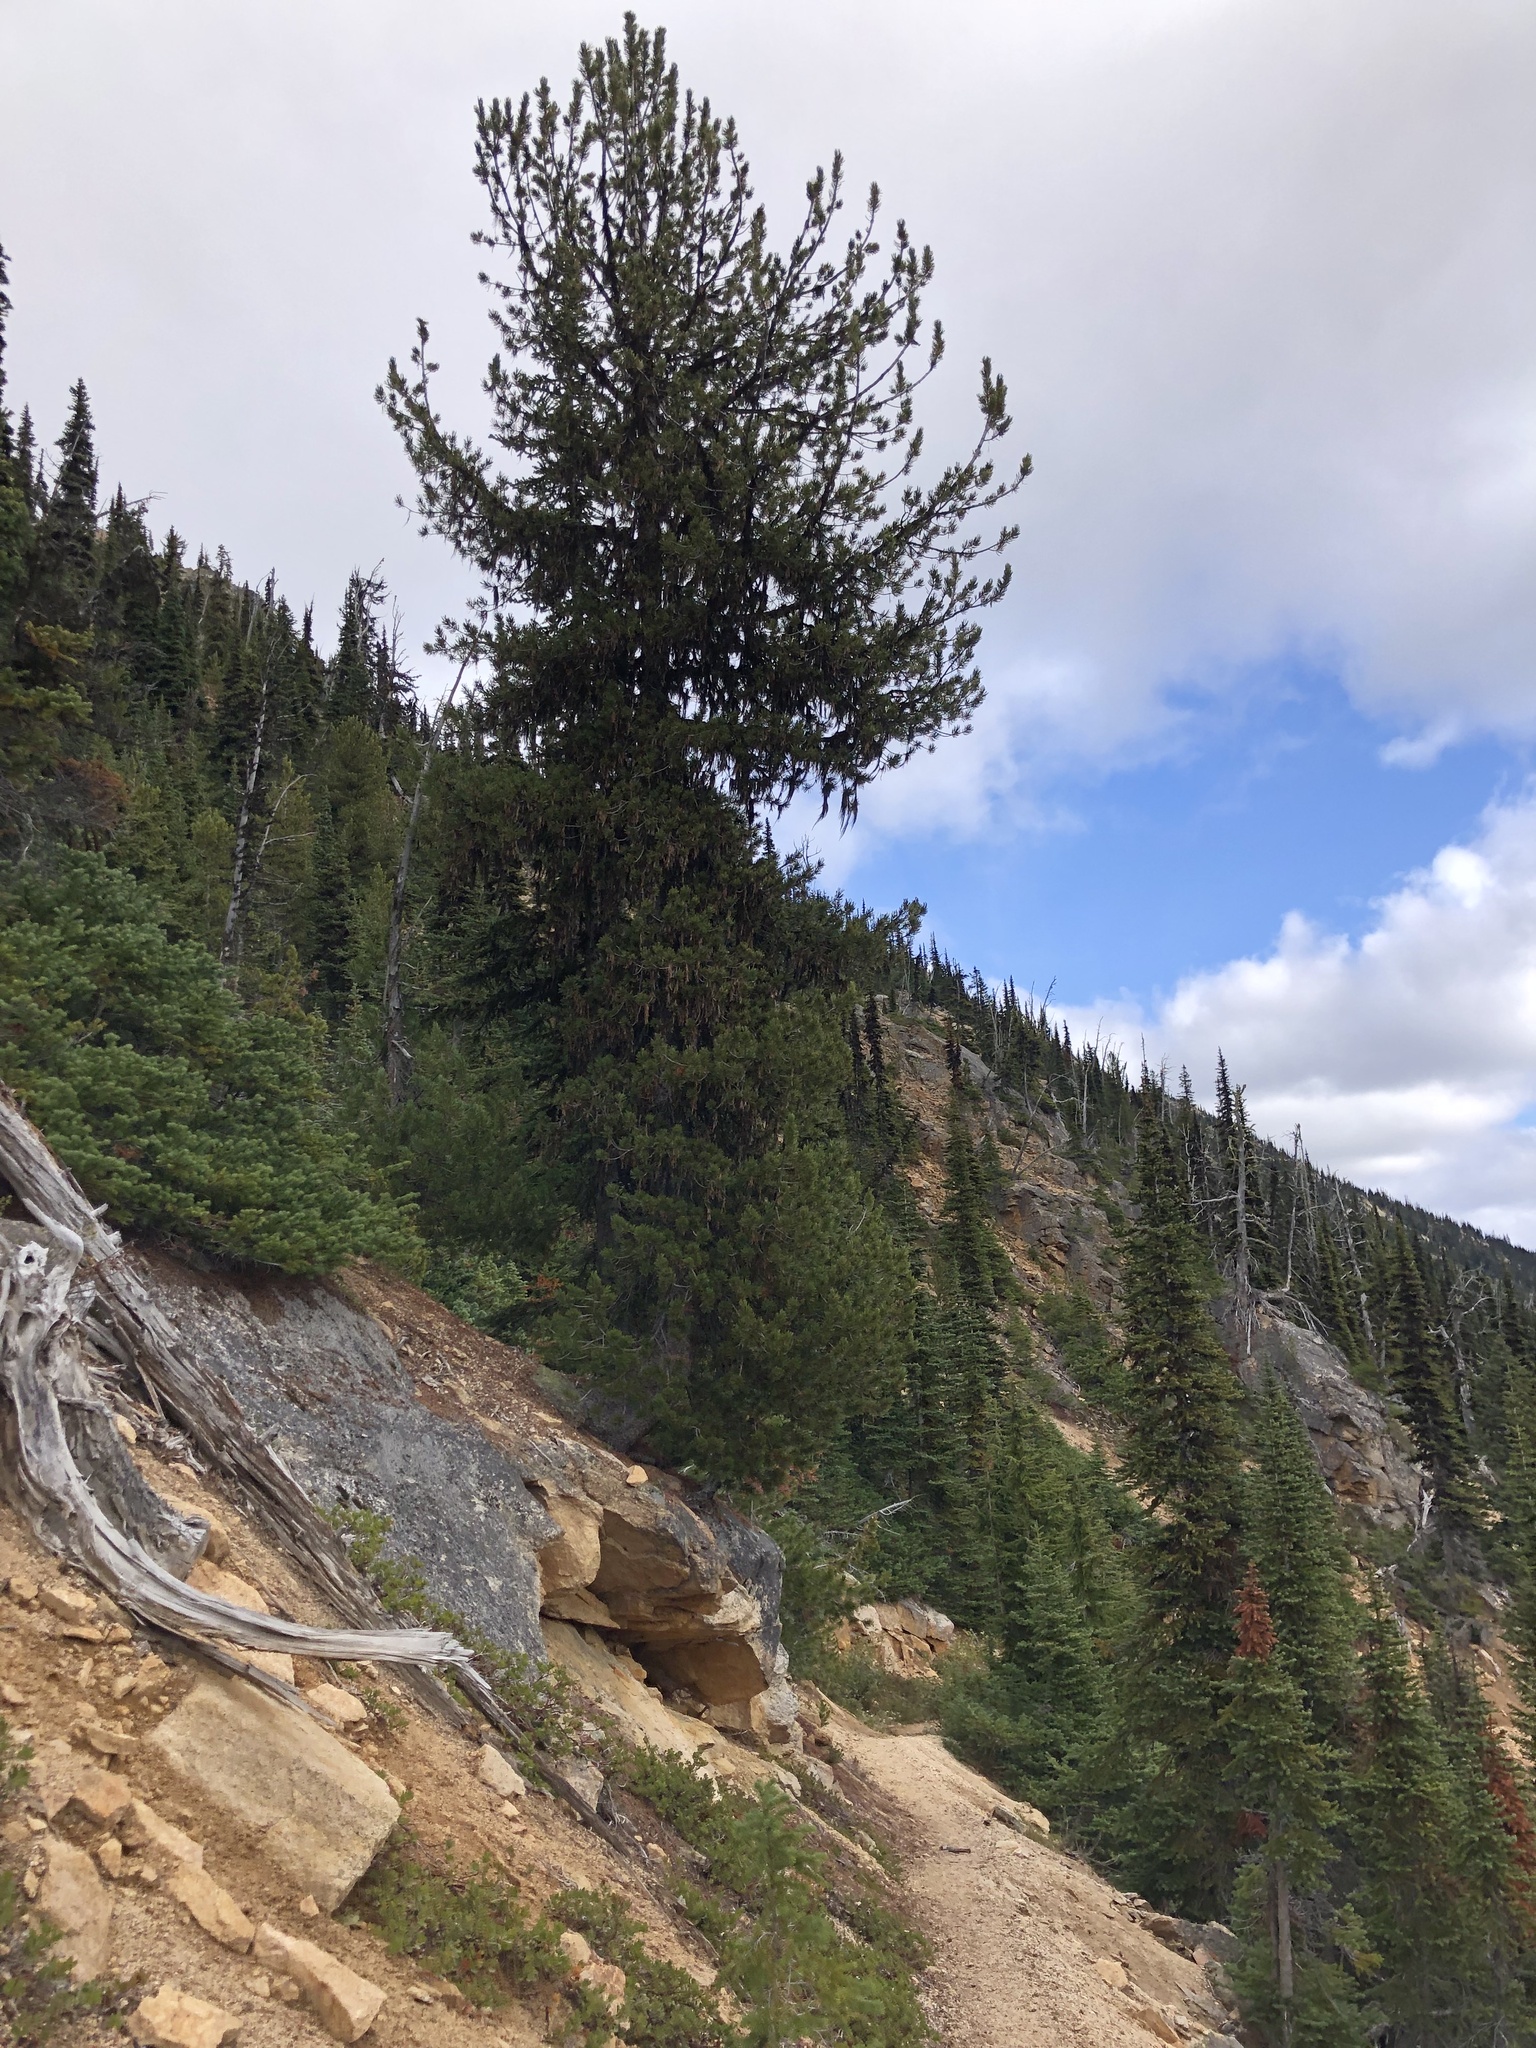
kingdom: Plantae
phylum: Tracheophyta
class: Pinopsida
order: Pinales
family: Pinaceae
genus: Pinus
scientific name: Pinus albicaulis
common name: Whitebark pine
